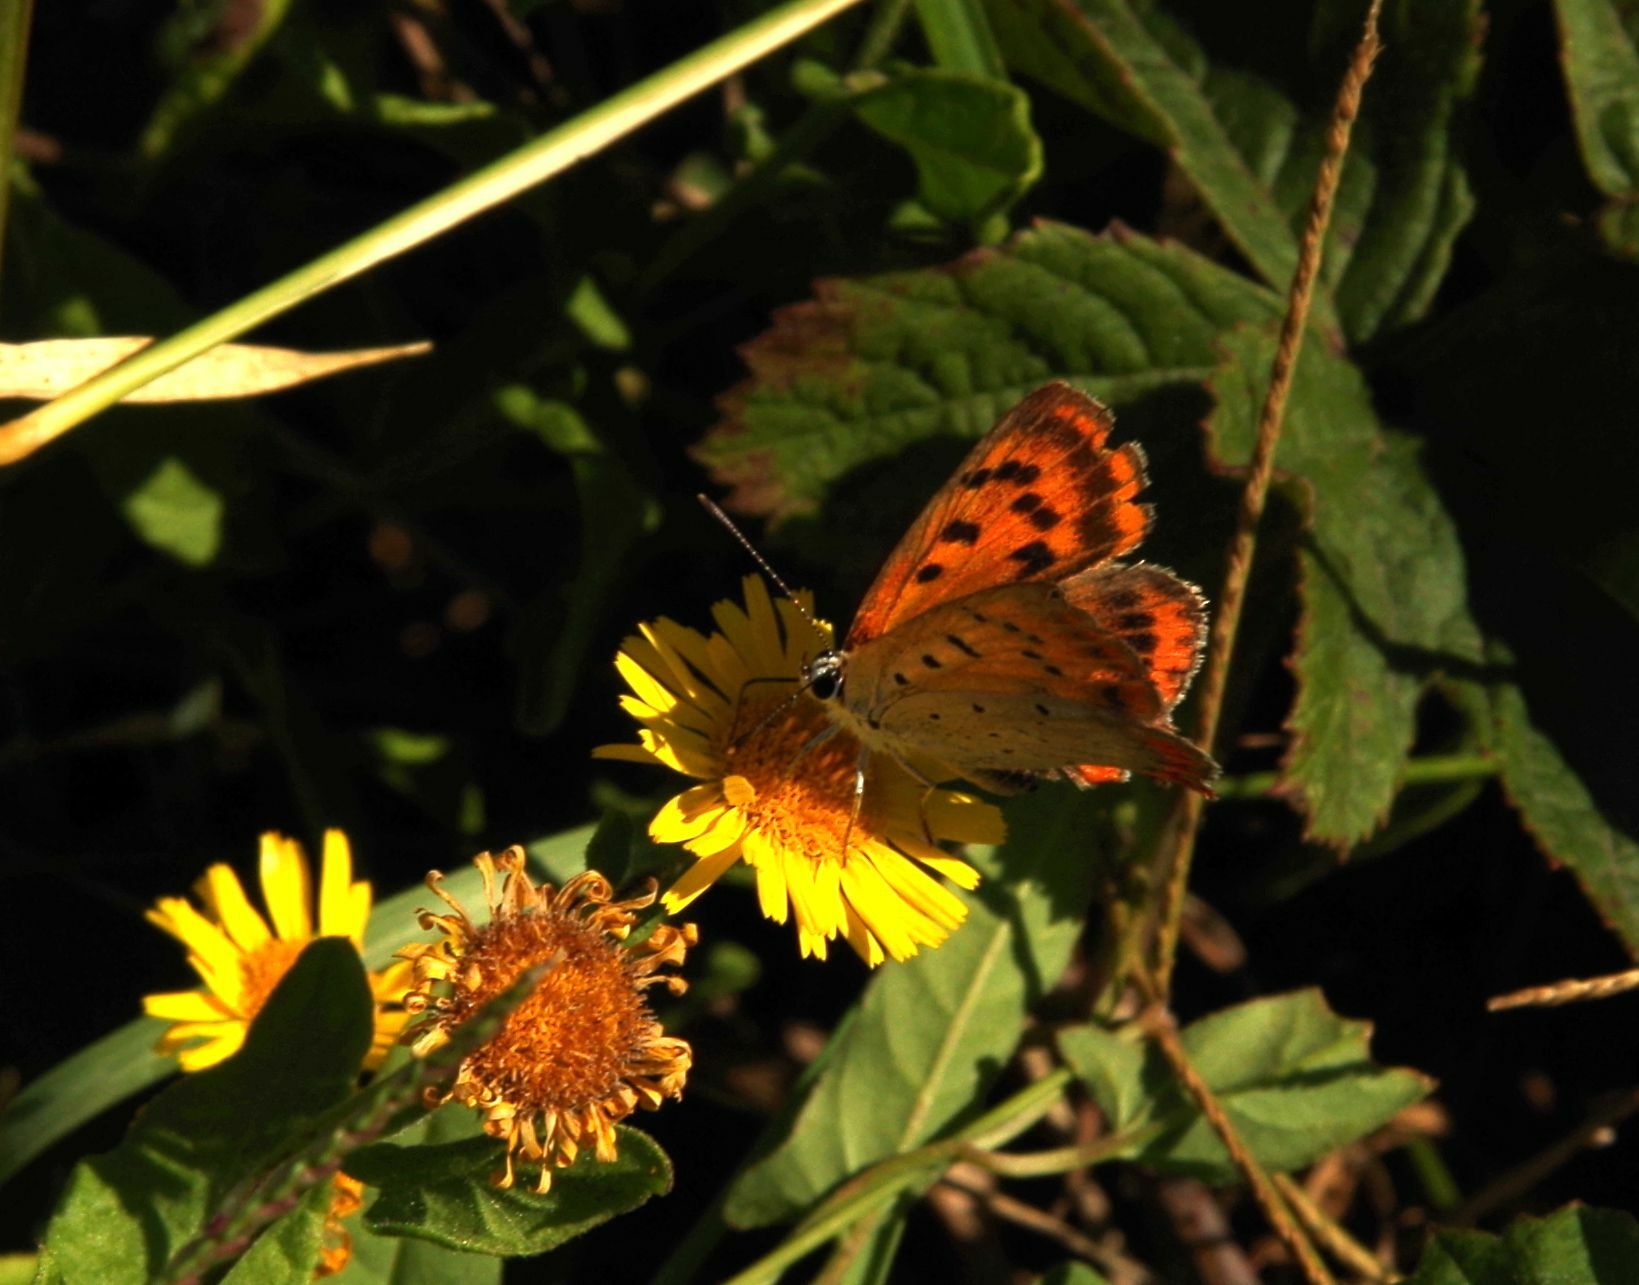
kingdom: Animalia
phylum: Arthropoda
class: Insecta
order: Lepidoptera
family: Lycaenidae
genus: Polyommatus
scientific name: Polyommatus ottomanus
